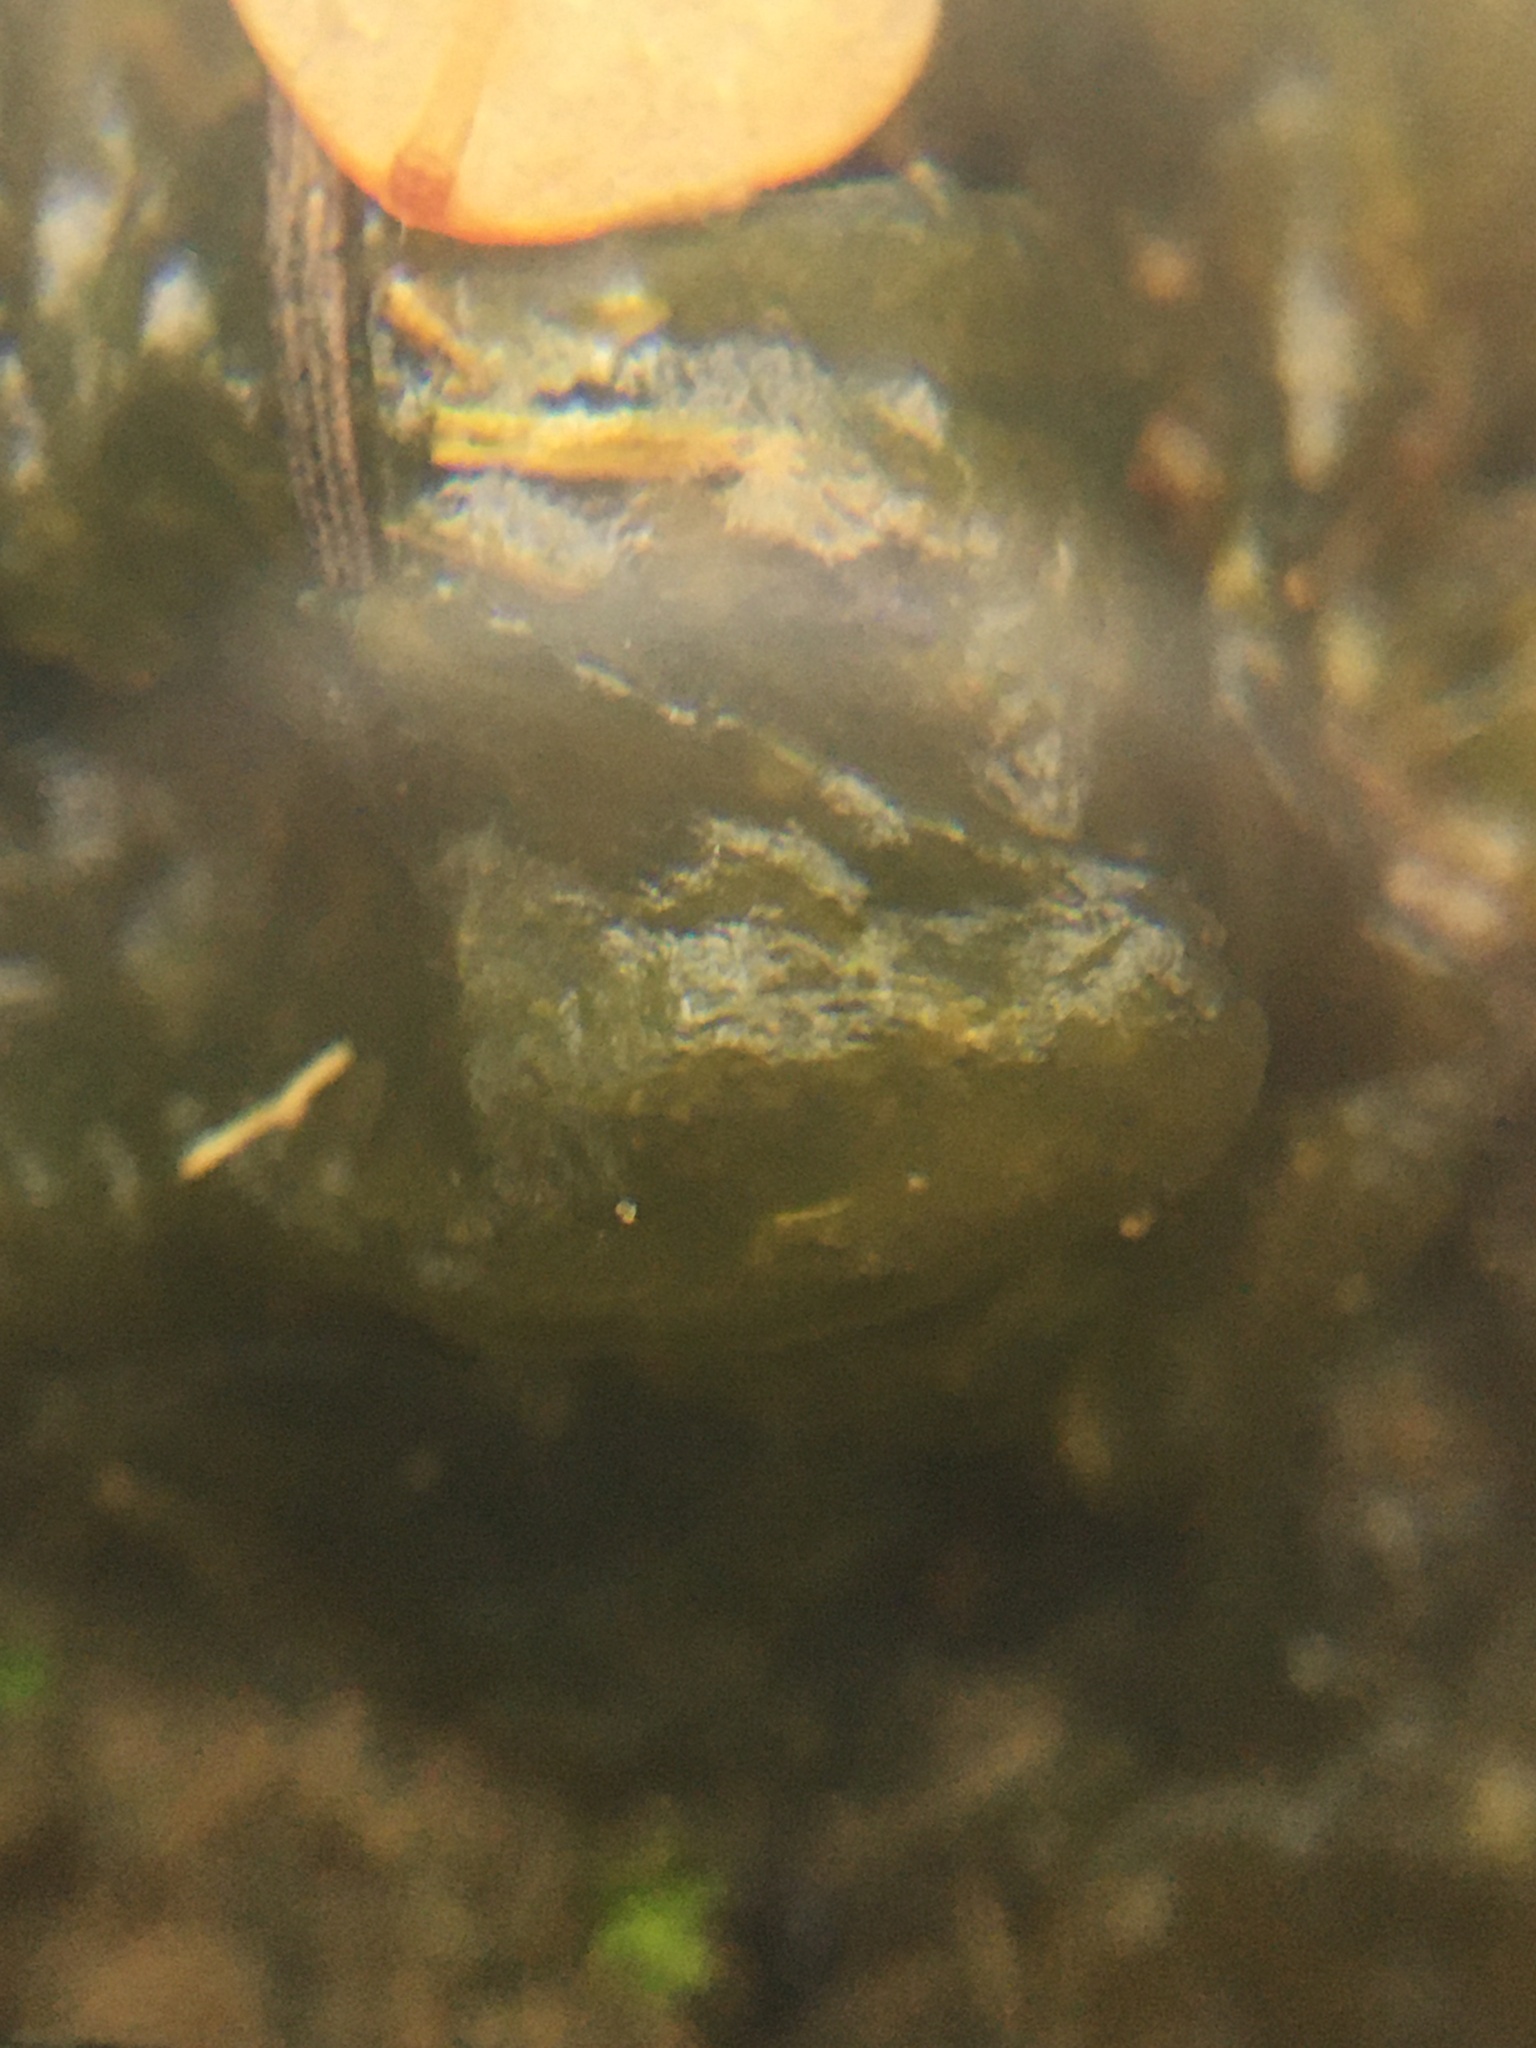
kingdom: Bacteria
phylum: Cyanobacteria
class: Cyanobacteriia
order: Cyanobacteriales
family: Nostocaceae
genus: Nostoc
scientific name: Nostoc commune
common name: Star jelly
